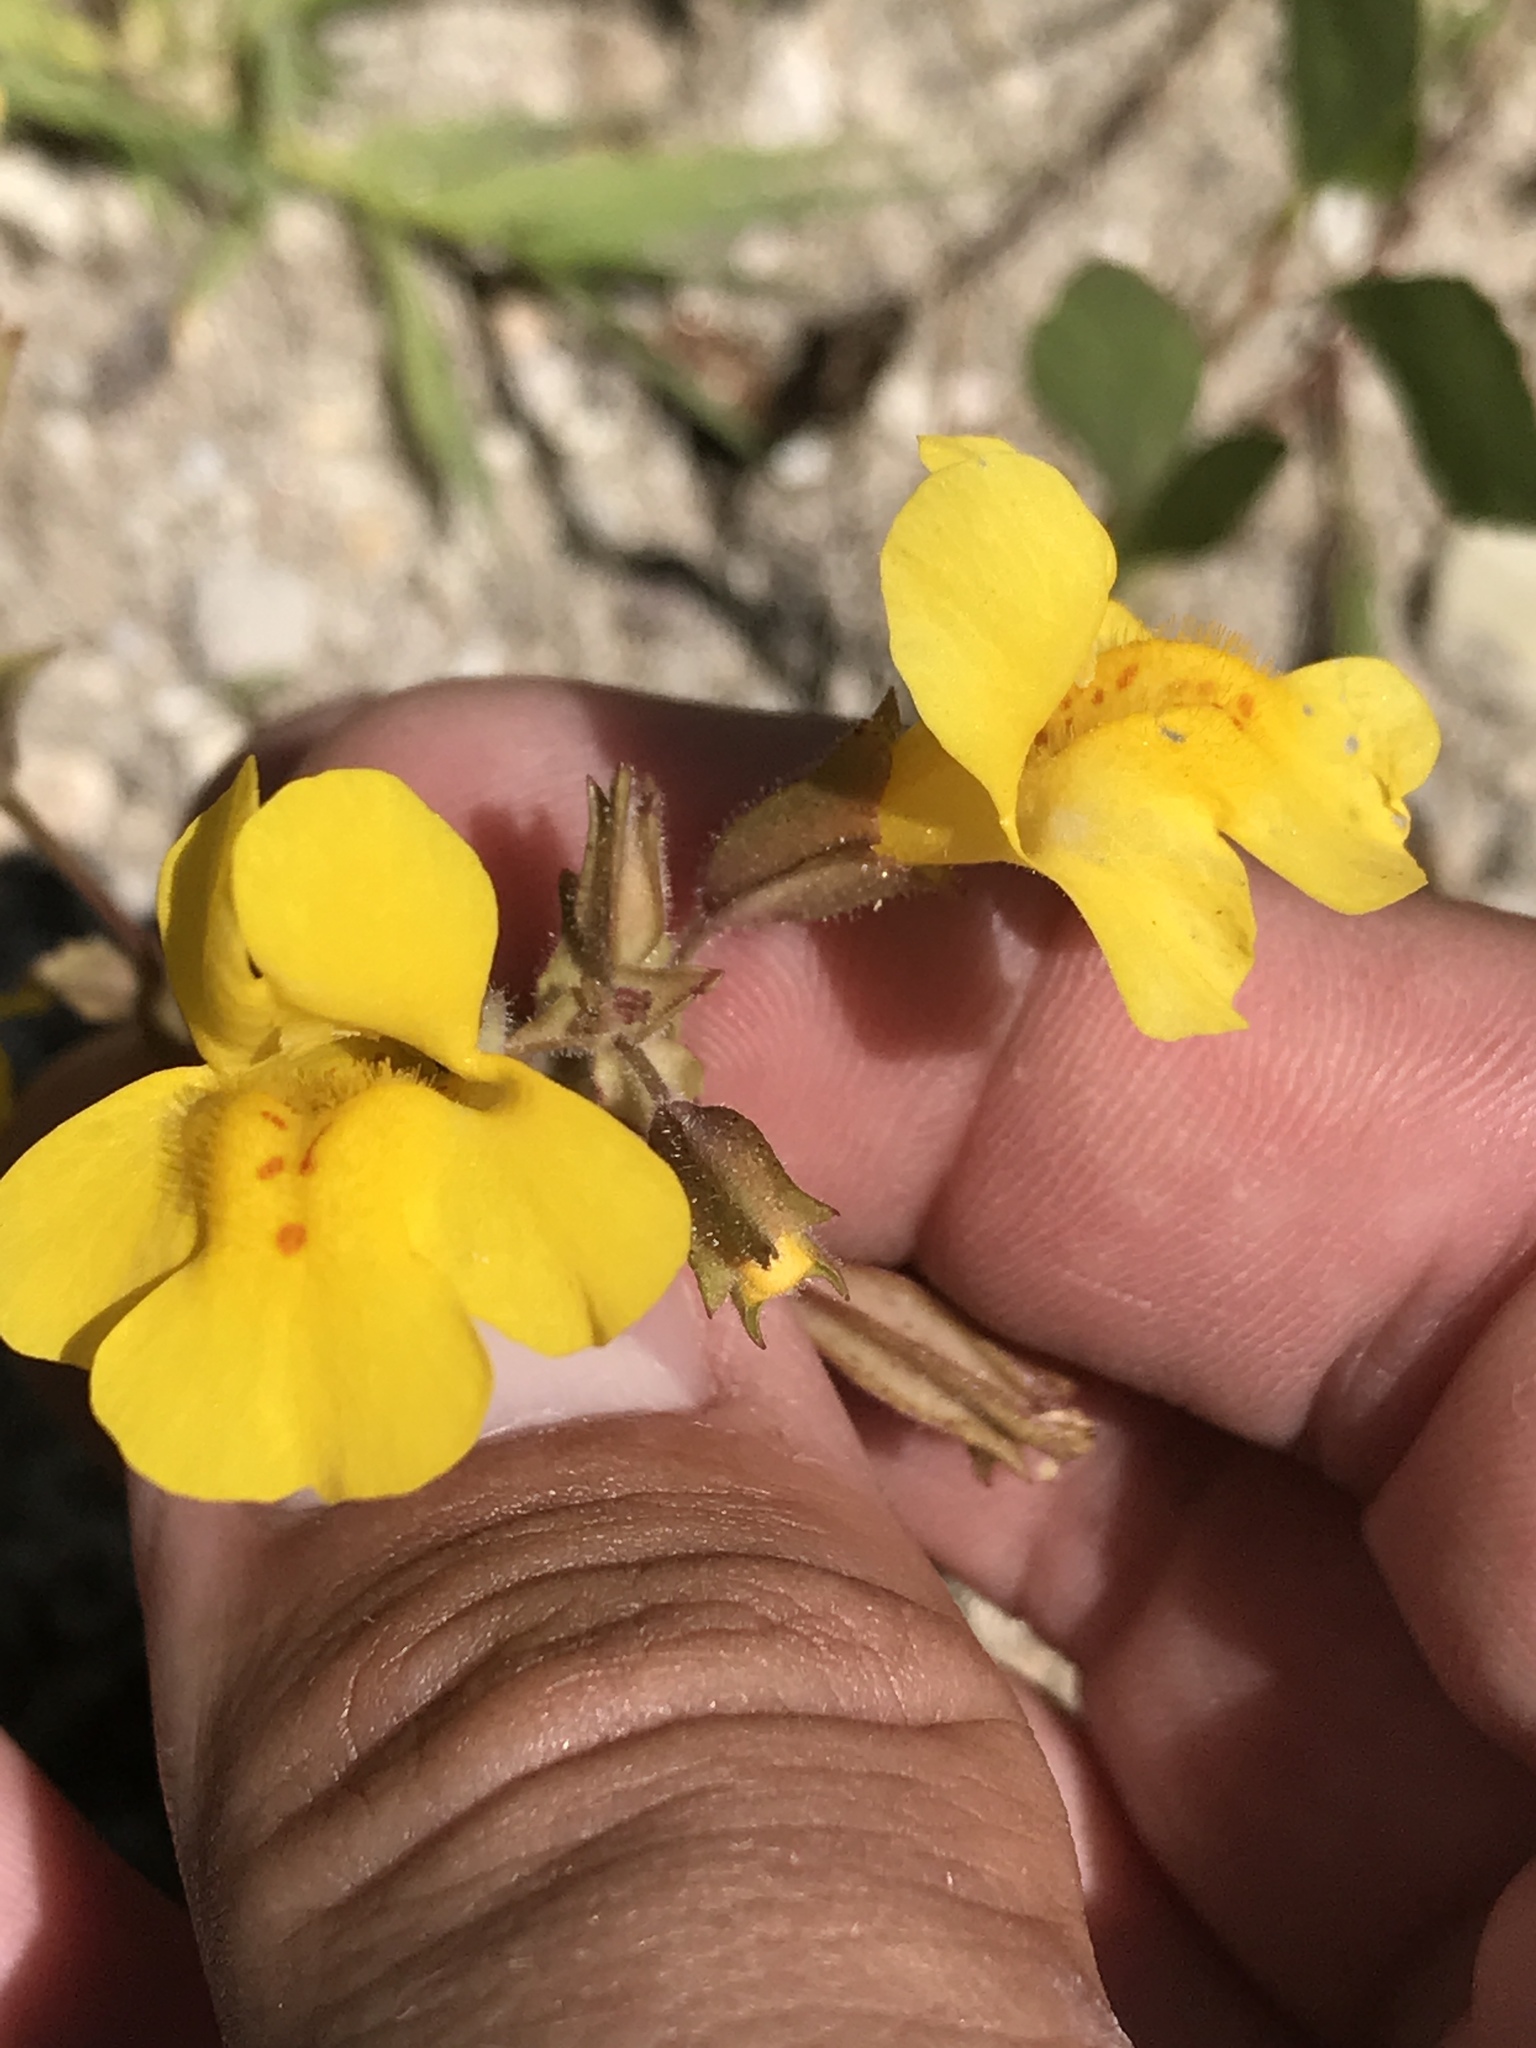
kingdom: Plantae
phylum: Tracheophyta
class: Magnoliopsida
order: Lamiales
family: Phrymaceae
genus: Erythranthe
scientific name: Erythranthe guttata
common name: Monkeyflower
